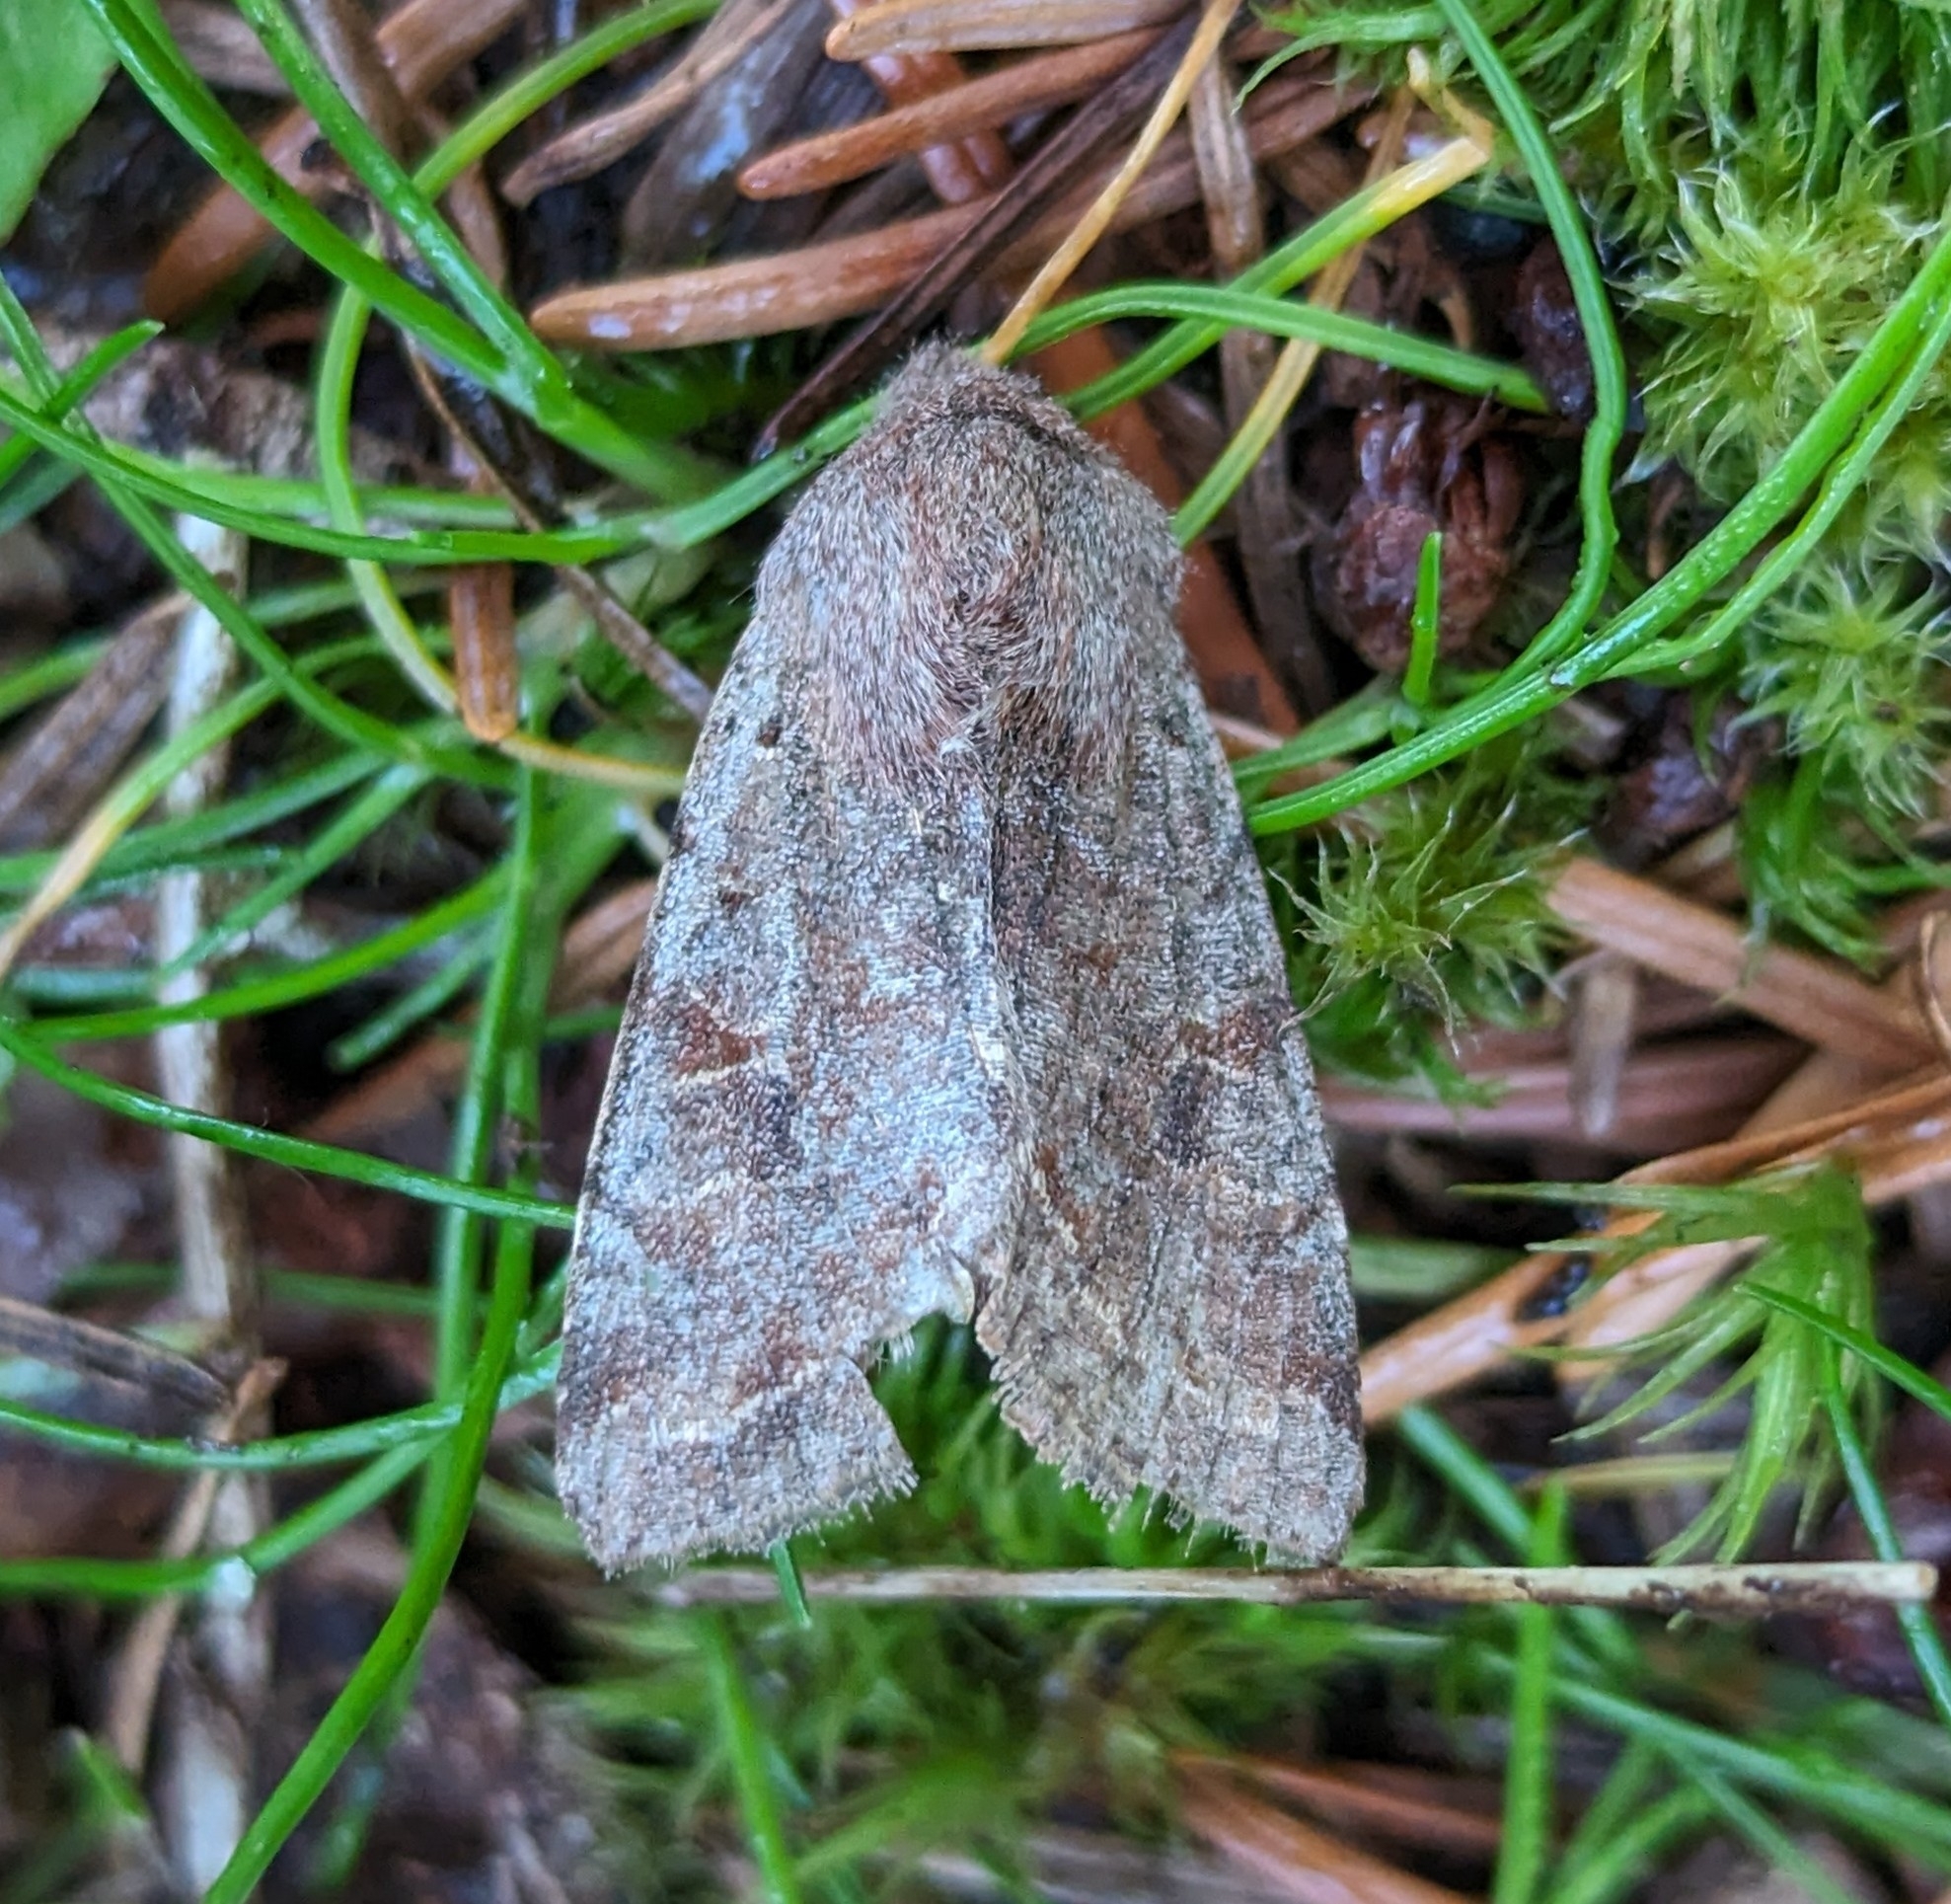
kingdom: Animalia
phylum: Arthropoda
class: Insecta
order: Lepidoptera
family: Noctuidae
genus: Orthosia
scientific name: Orthosia hibisci
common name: Green fruitworm
